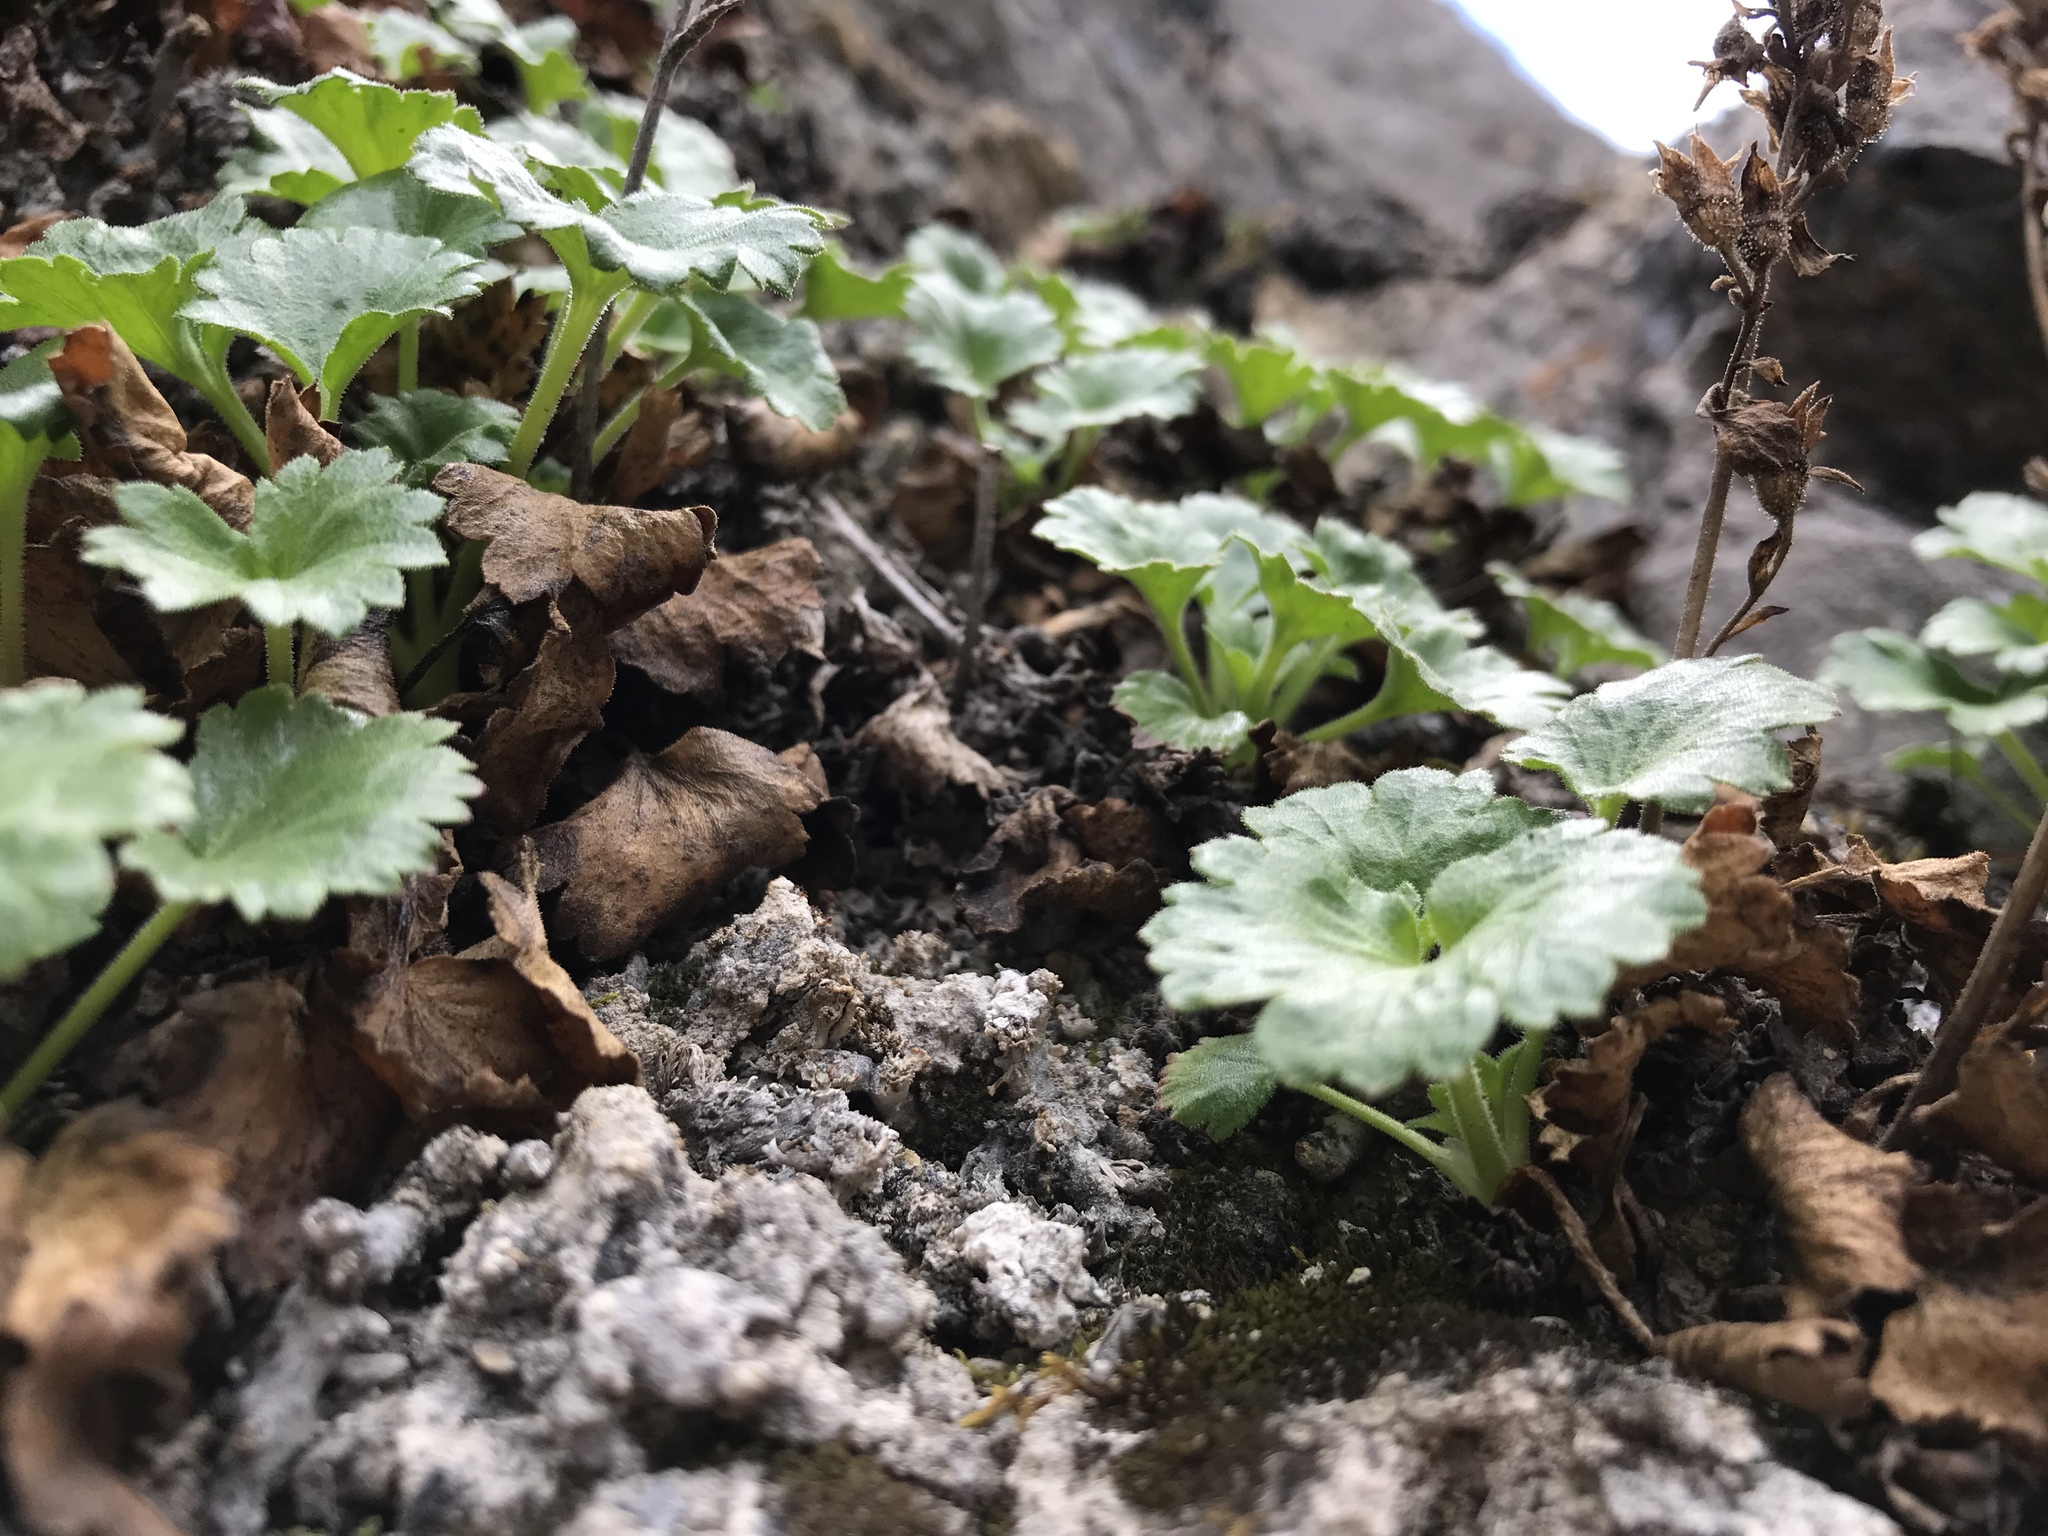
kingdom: Plantae
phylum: Tracheophyta
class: Magnoliopsida
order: Saxifragales
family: Saxifragaceae
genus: Telesonix
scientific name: Telesonix heucheriformis
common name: Alumroot brookfoam
